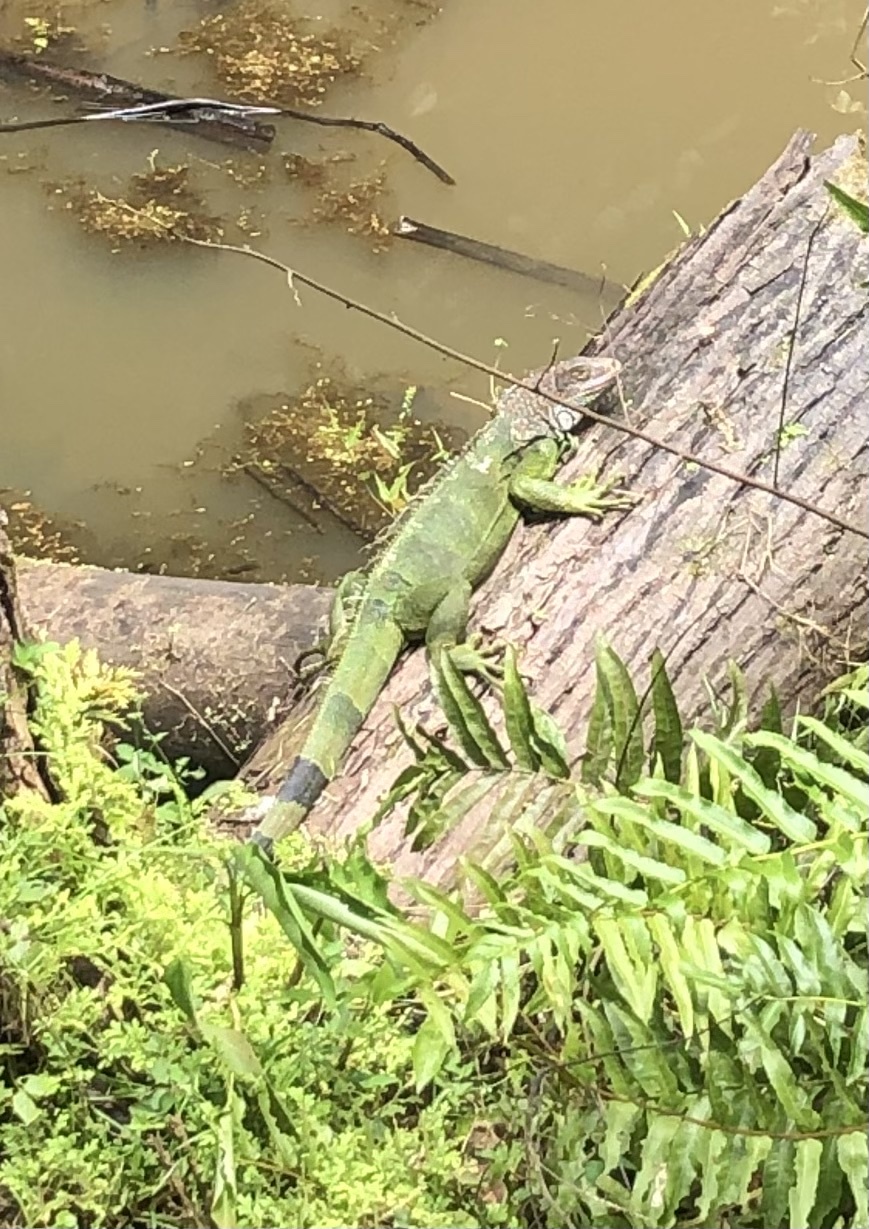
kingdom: Animalia
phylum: Chordata
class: Squamata
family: Iguanidae
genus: Iguana
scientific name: Iguana iguana
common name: Green iguana
